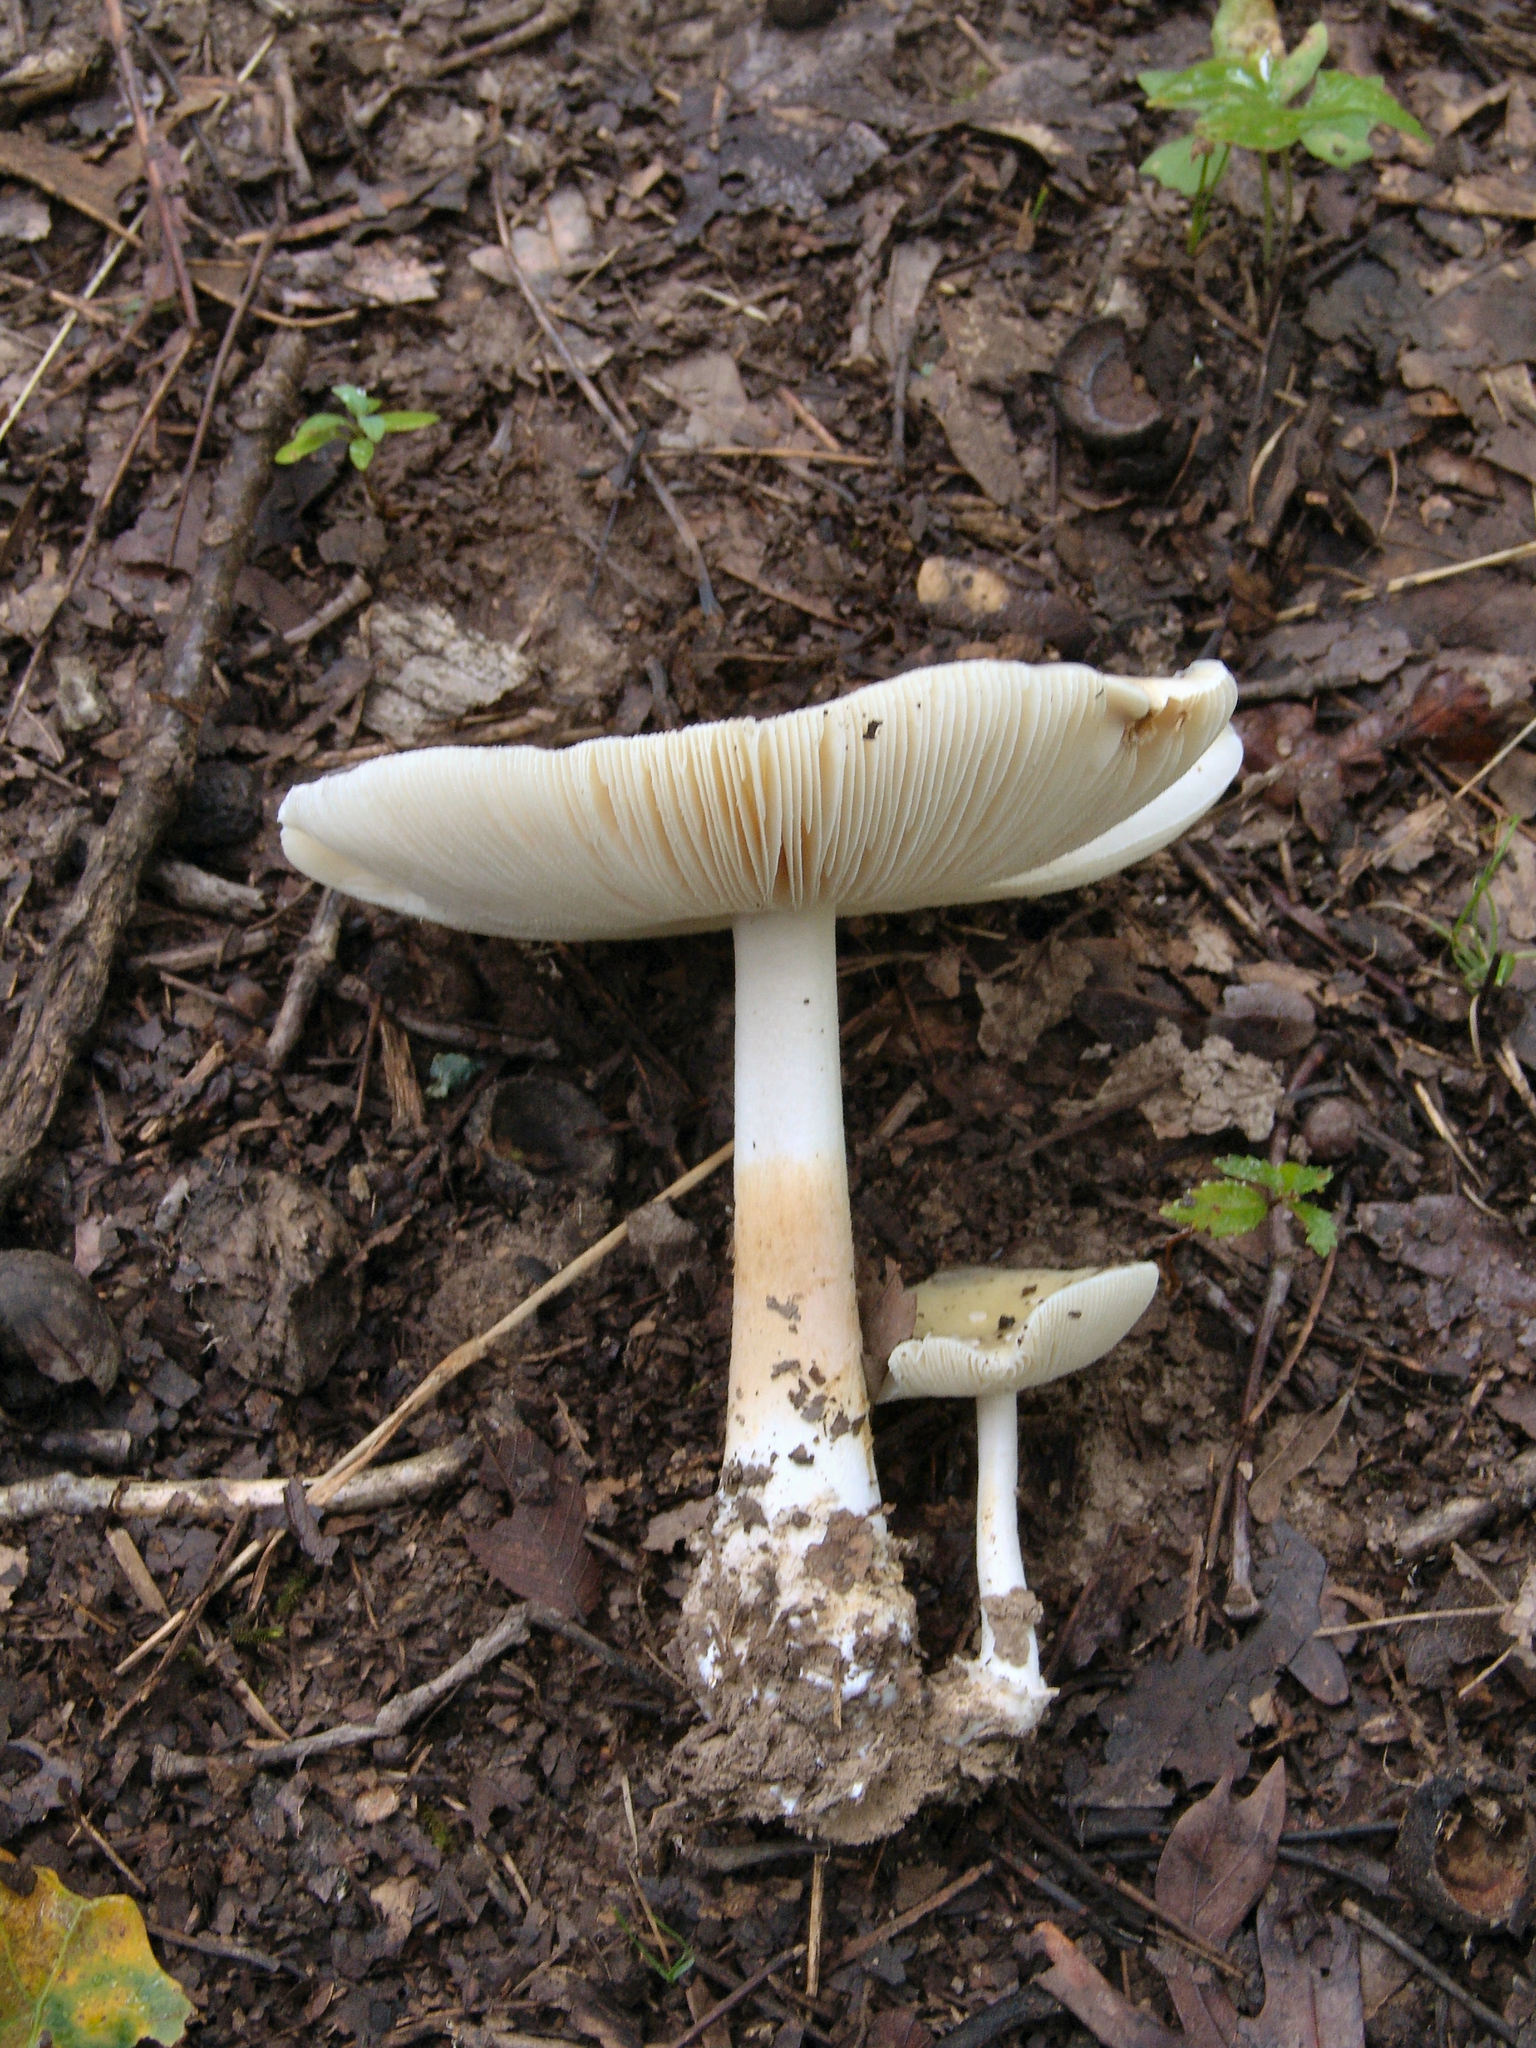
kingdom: Fungi
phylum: Basidiomycota
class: Agaricomycetes
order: Agaricales
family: Amanitaceae
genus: Amanita
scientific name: Amanita
